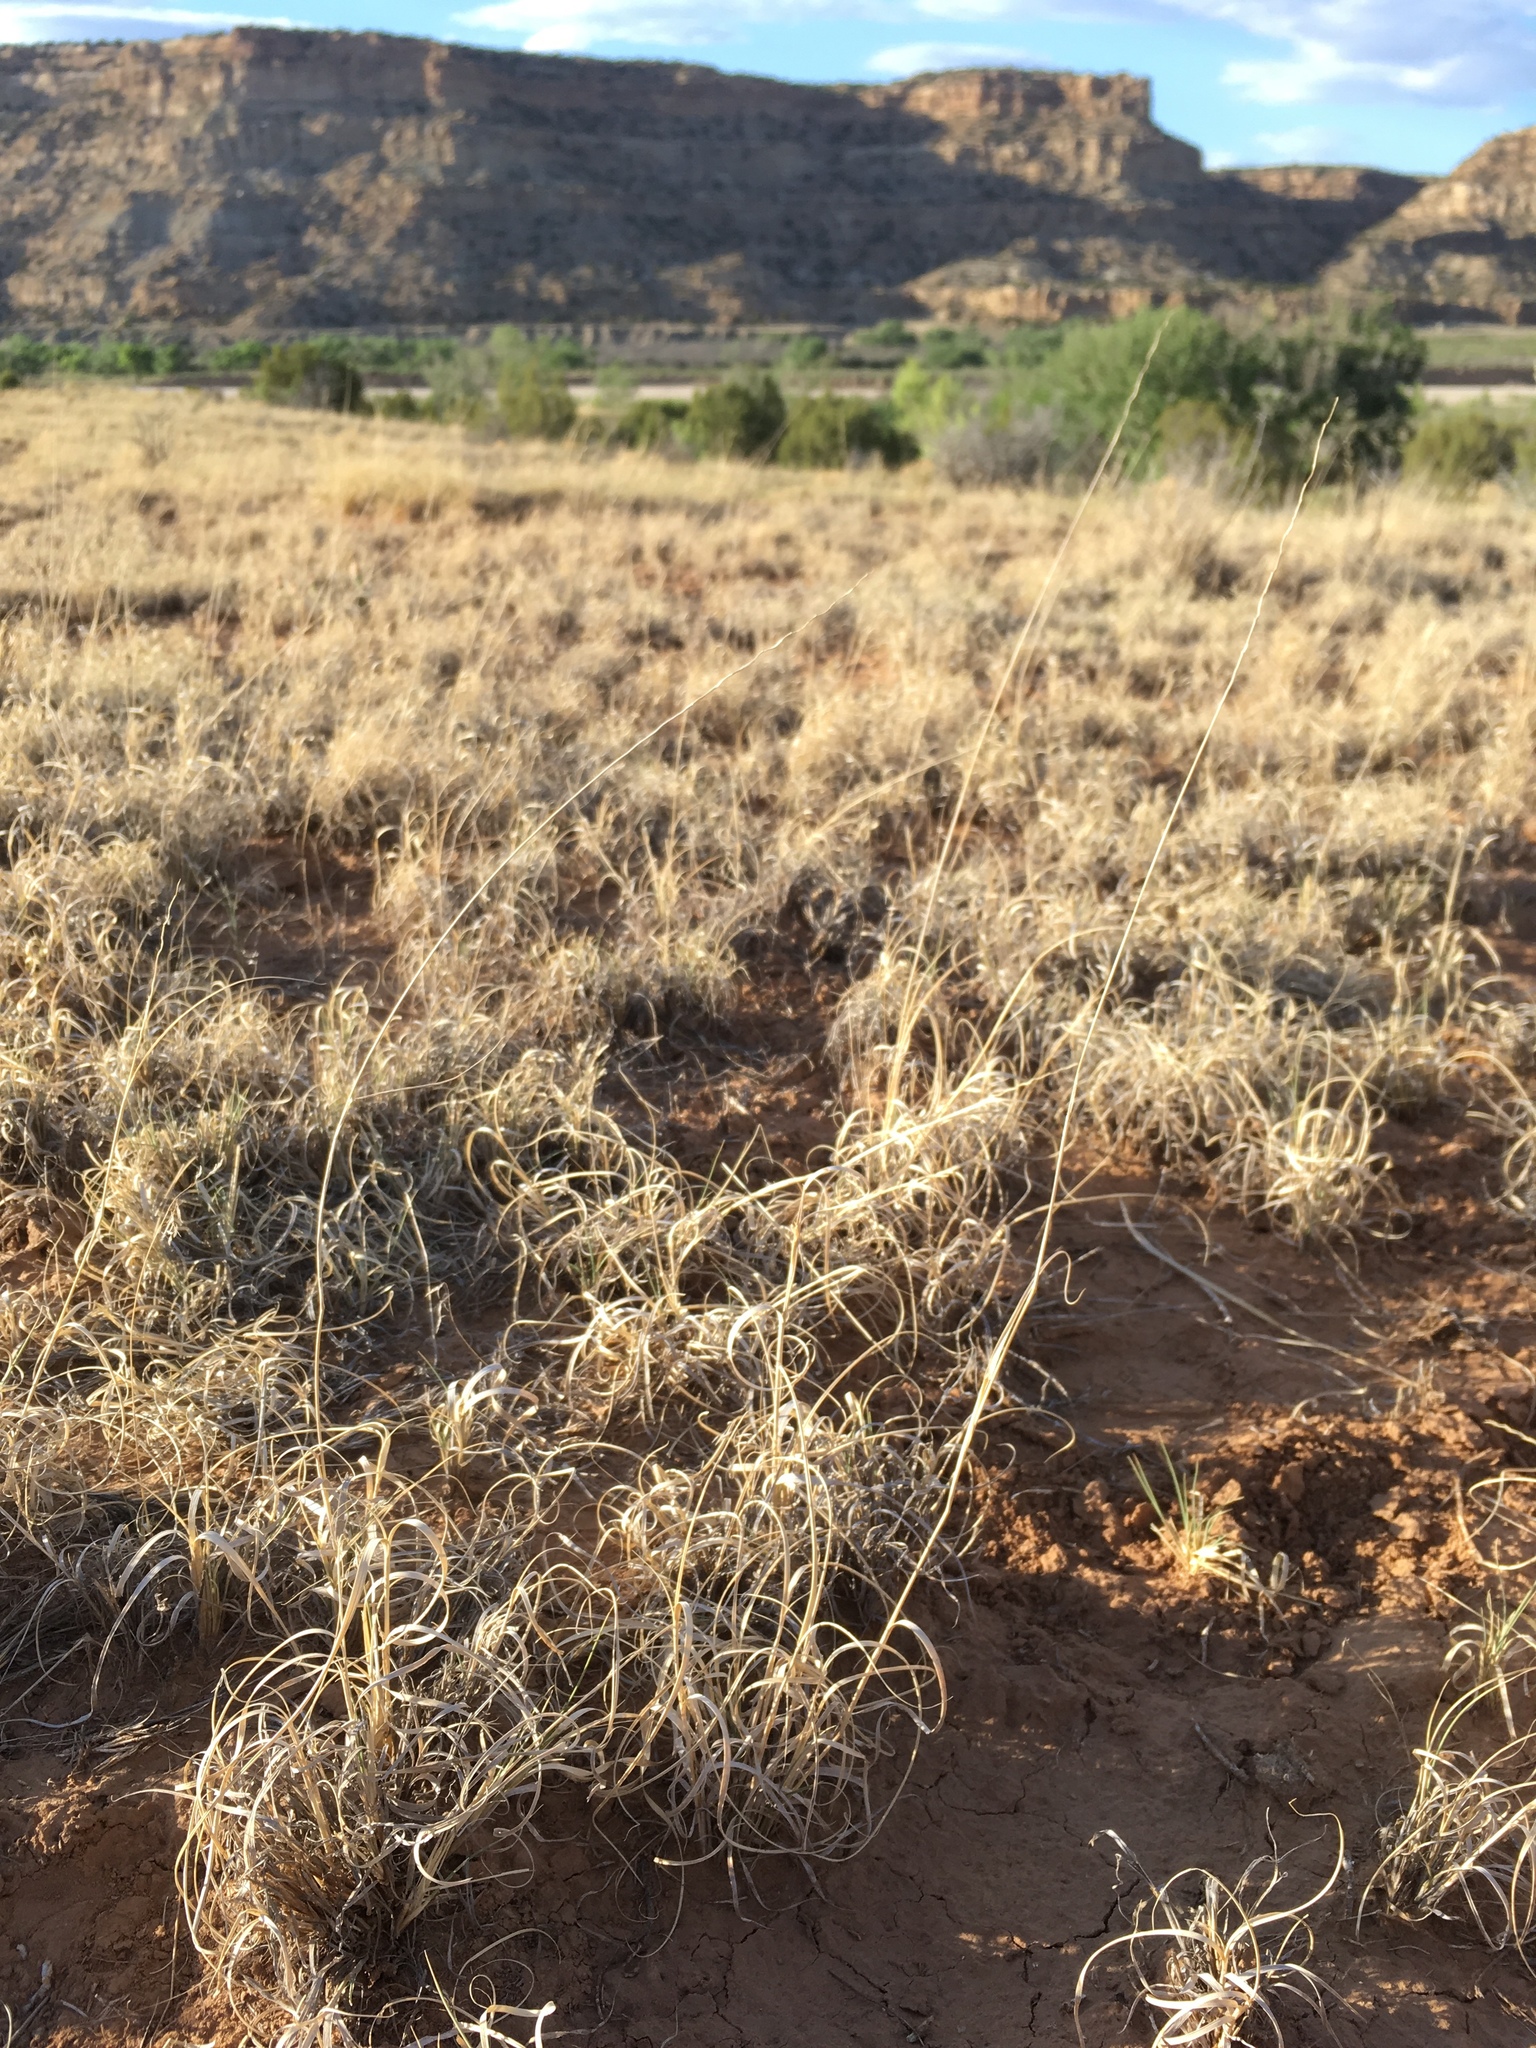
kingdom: Plantae
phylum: Tracheophyta
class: Liliopsida
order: Poales
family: Poaceae
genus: Hilaria
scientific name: Hilaria jamesii
